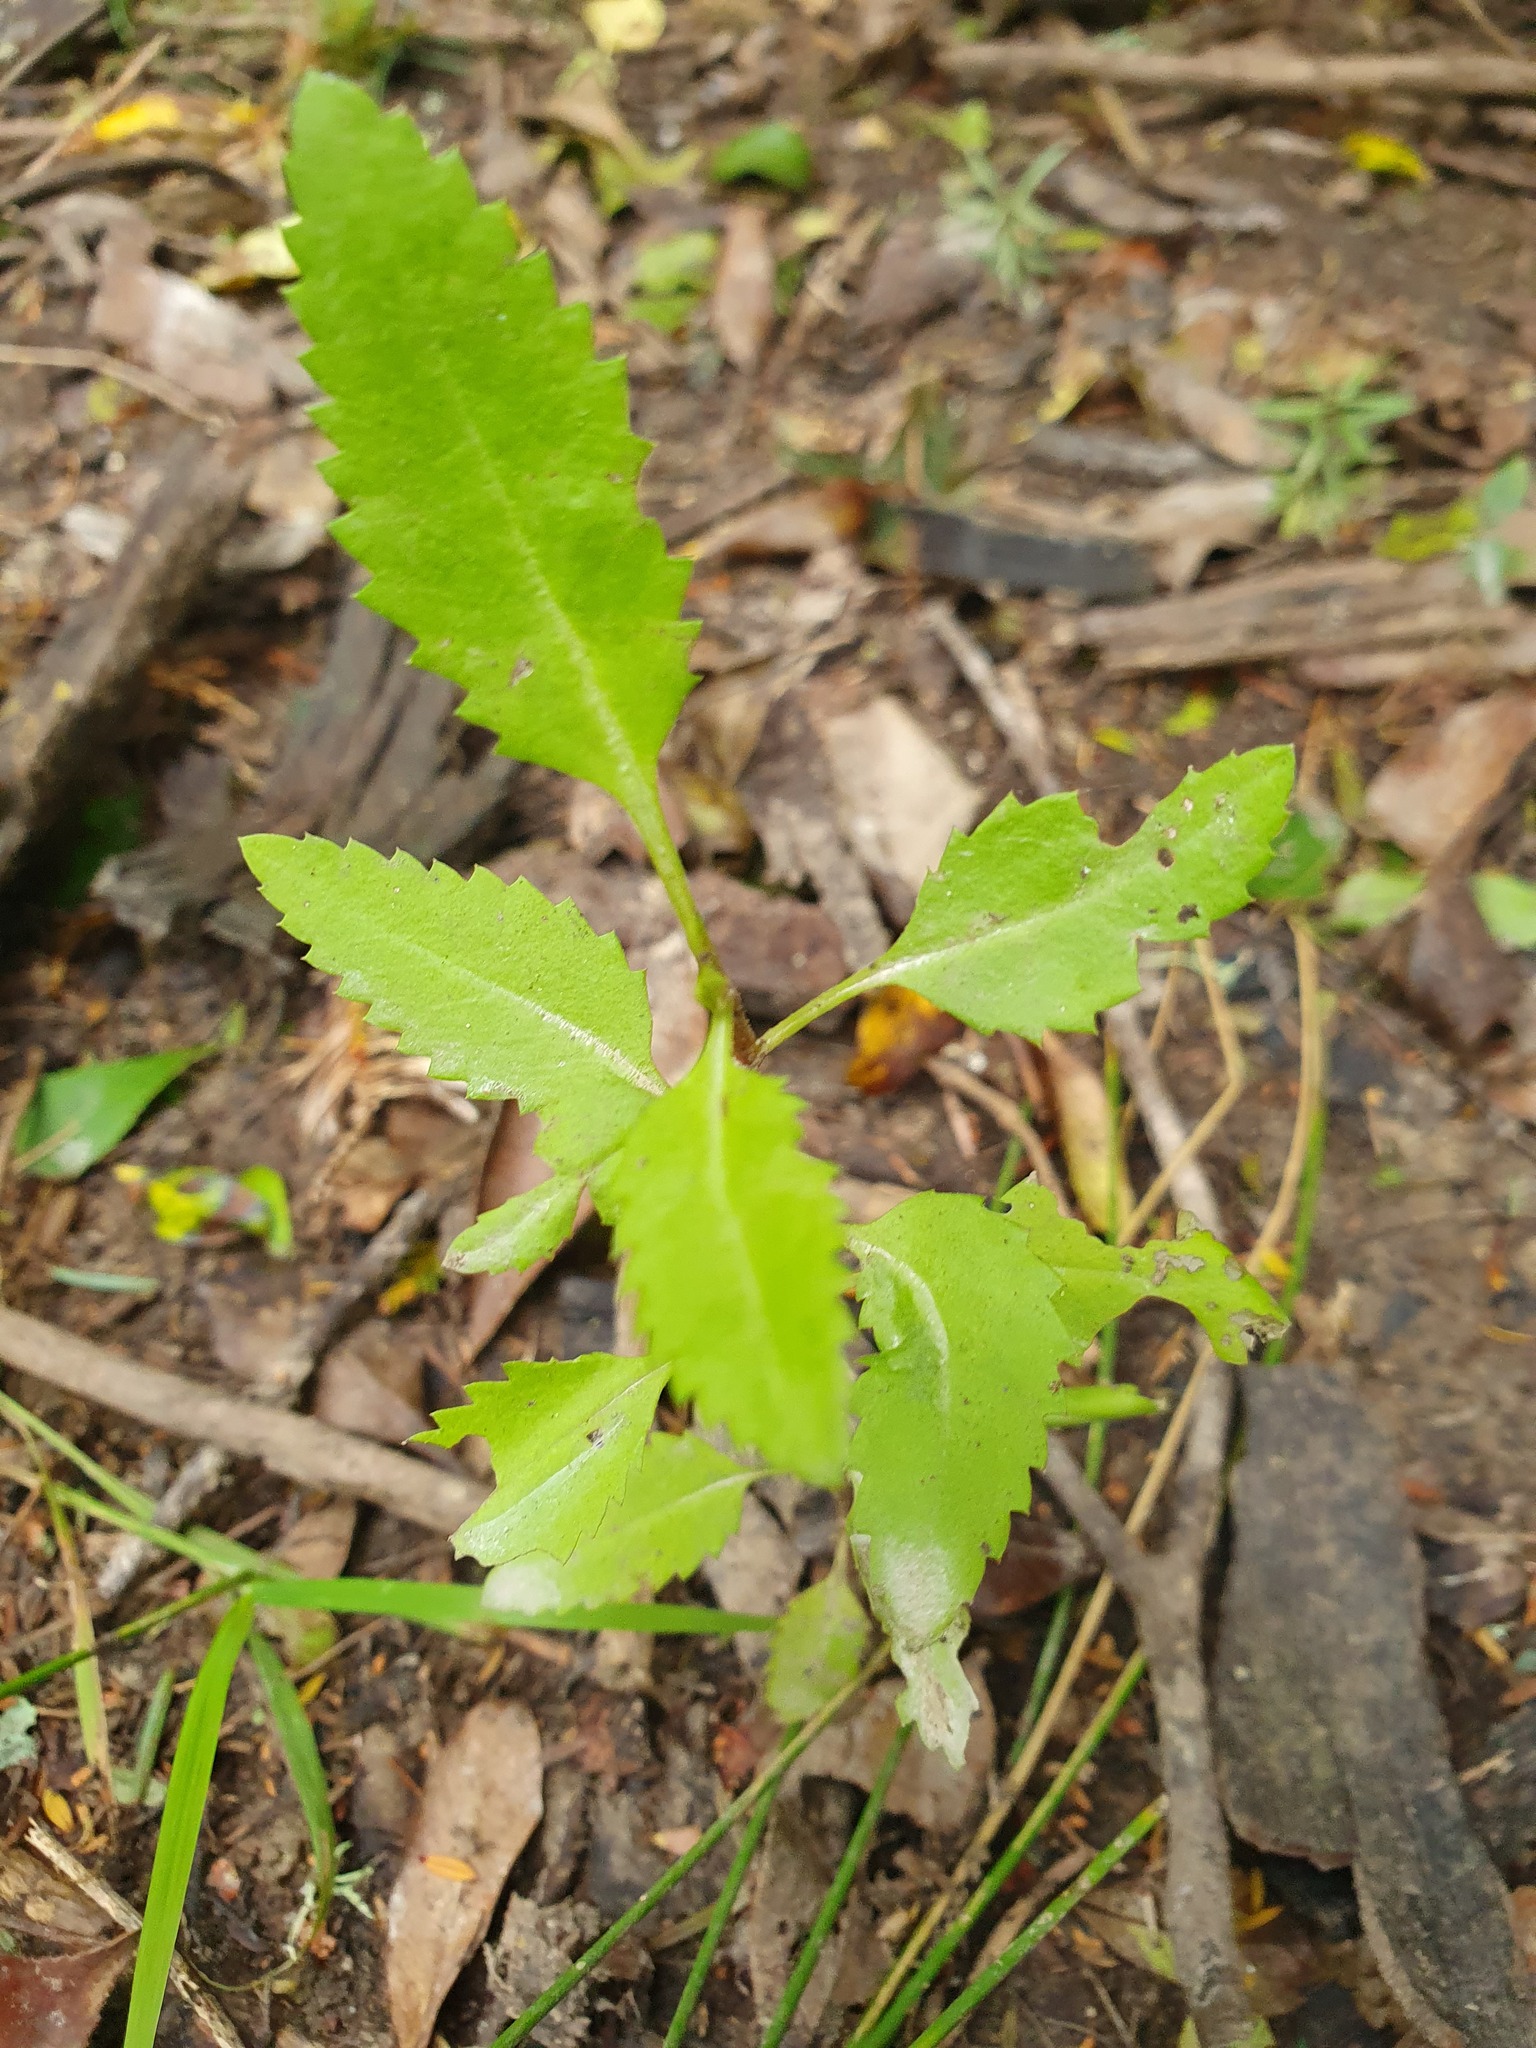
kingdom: Plantae
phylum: Tracheophyta
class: Magnoliopsida
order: Saxifragales
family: Haloragaceae
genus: Haloragis
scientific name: Haloragis erecta
